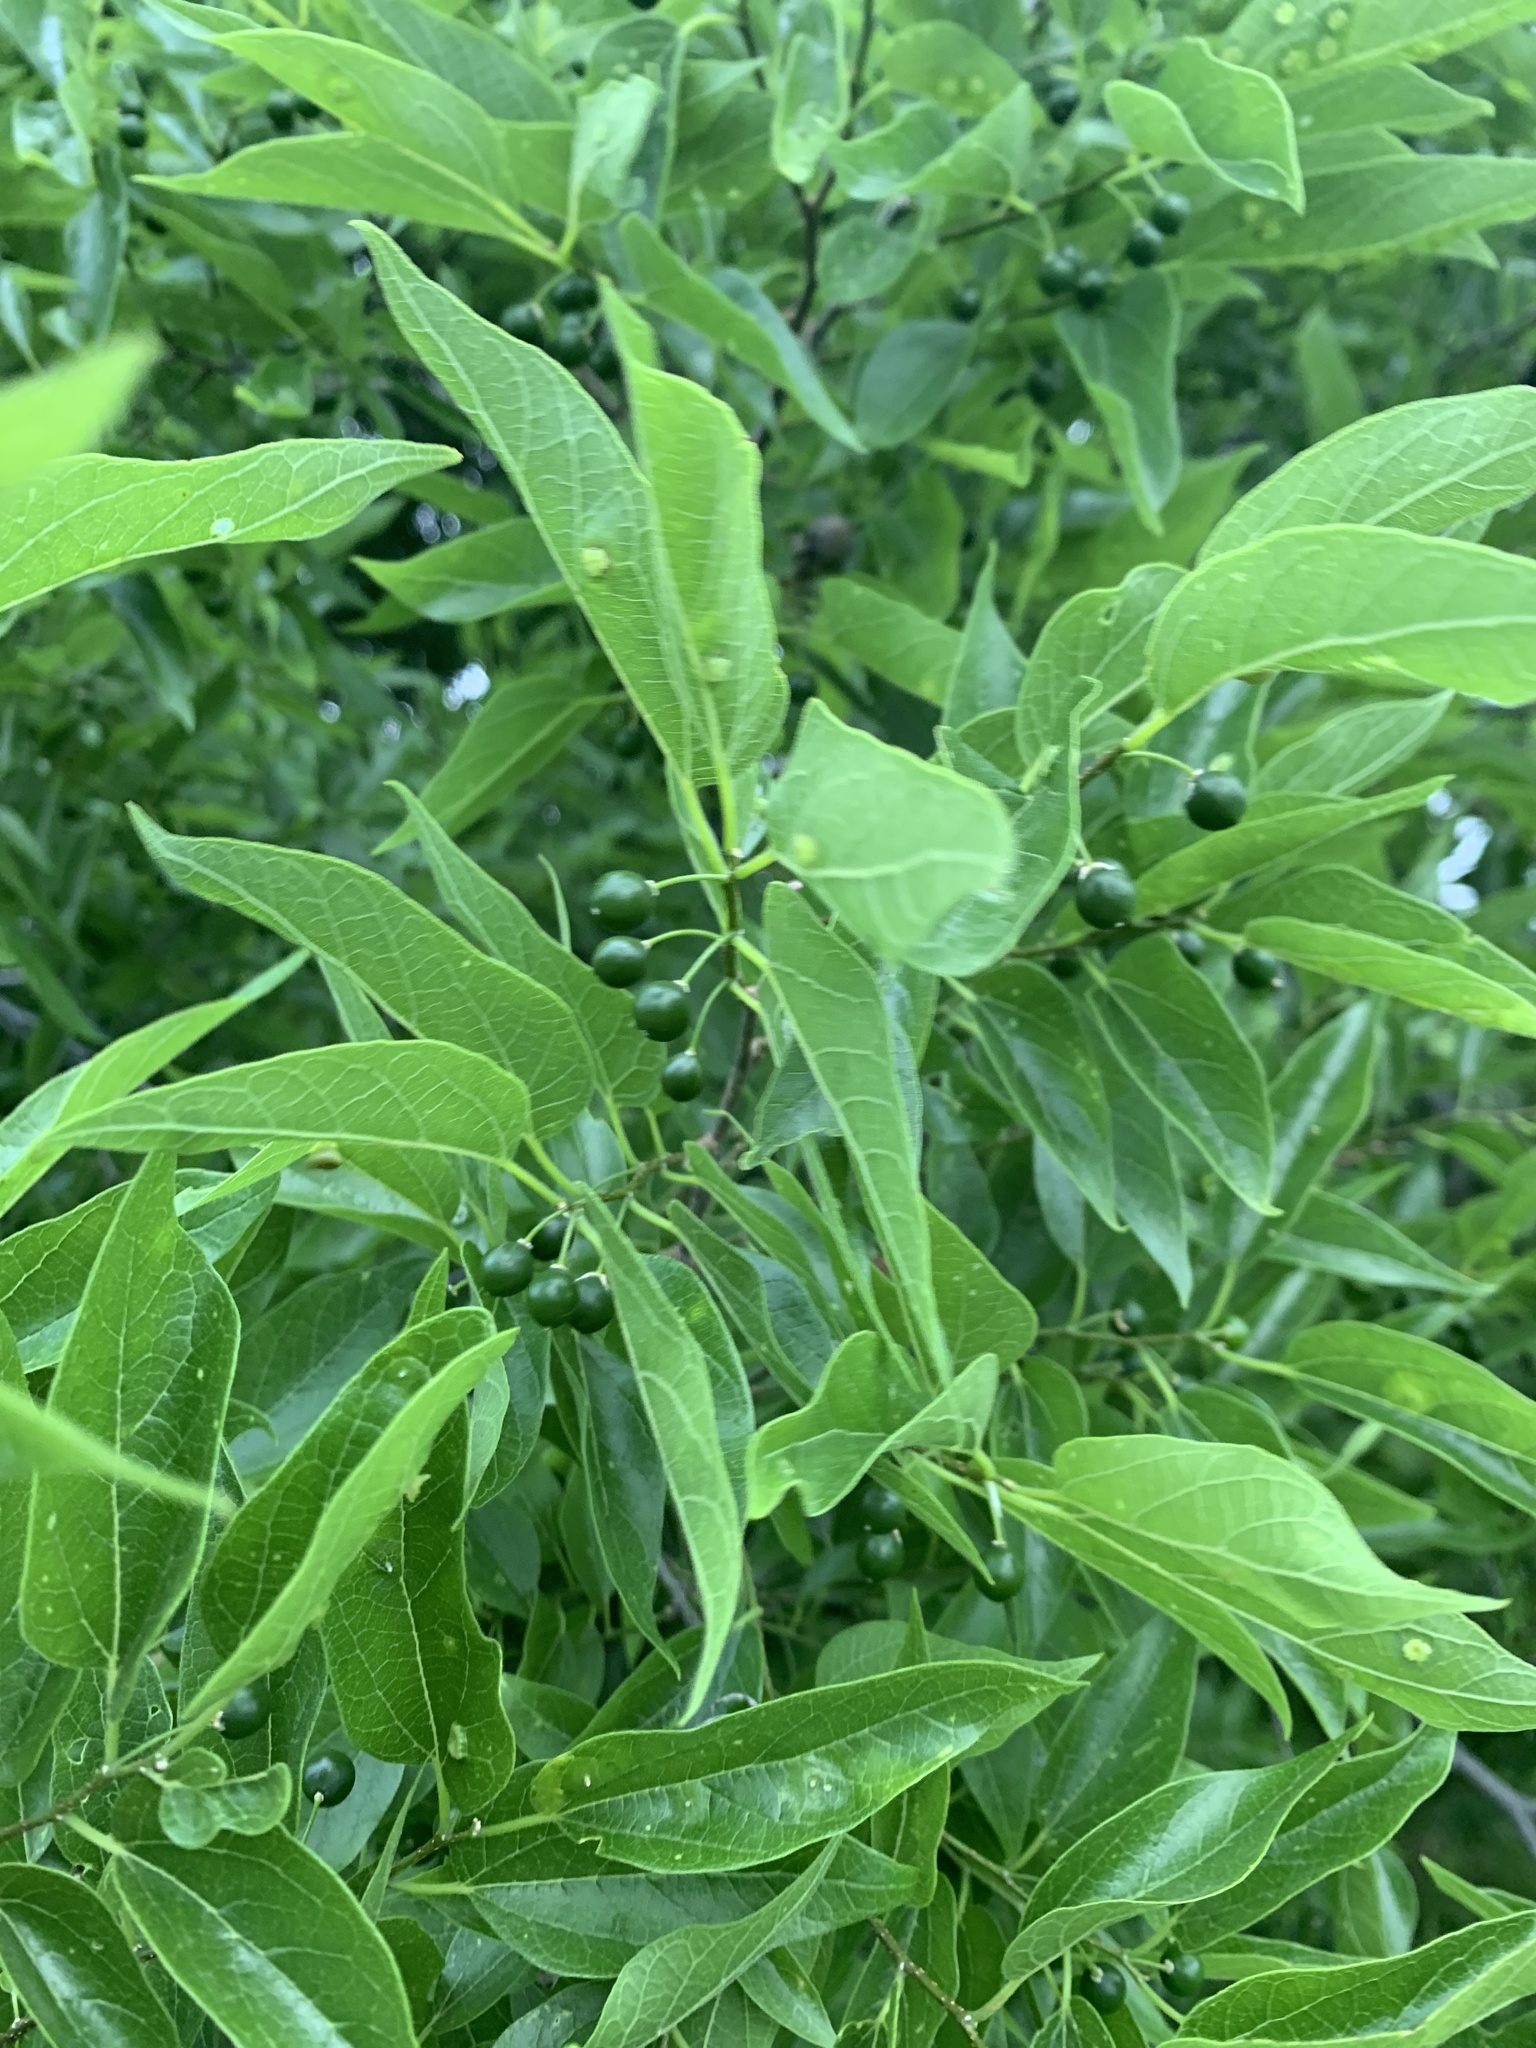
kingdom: Plantae
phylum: Tracheophyta
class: Magnoliopsida
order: Rosales
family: Cannabaceae
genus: Celtis
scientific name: Celtis laevigata
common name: Sugarberry
